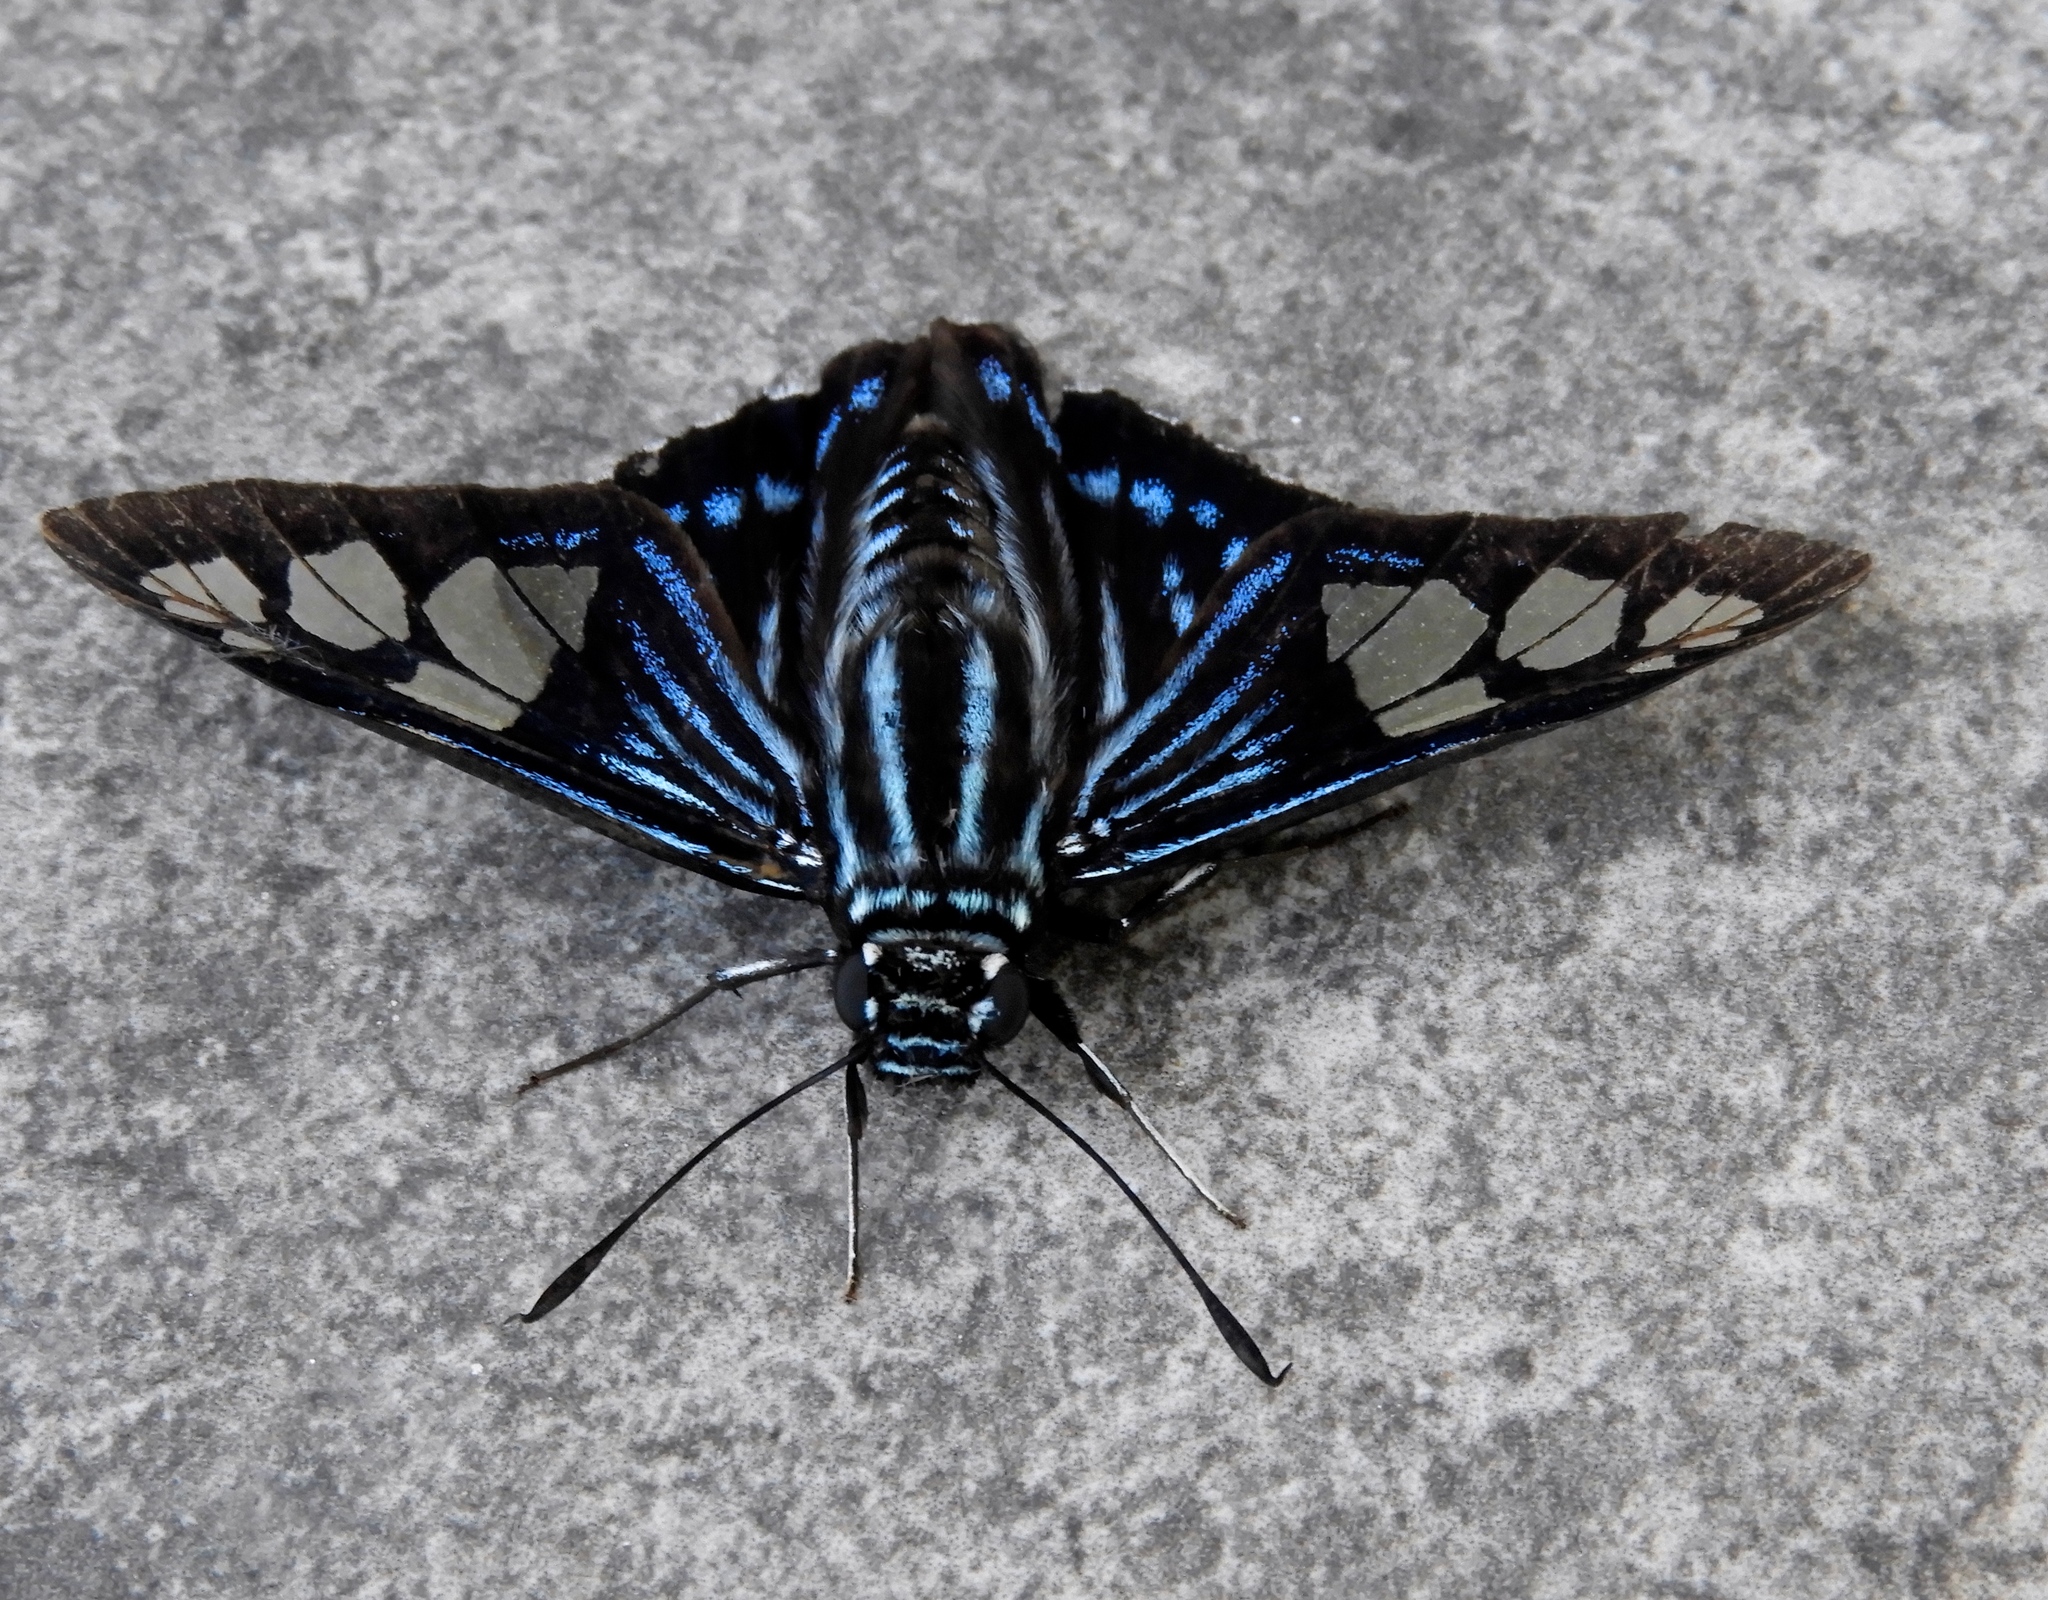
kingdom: Animalia
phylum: Arthropoda
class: Insecta
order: Lepidoptera
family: Hesperiidae
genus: Phocides
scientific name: Phocides pigmalion
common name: Mangrove skipper
